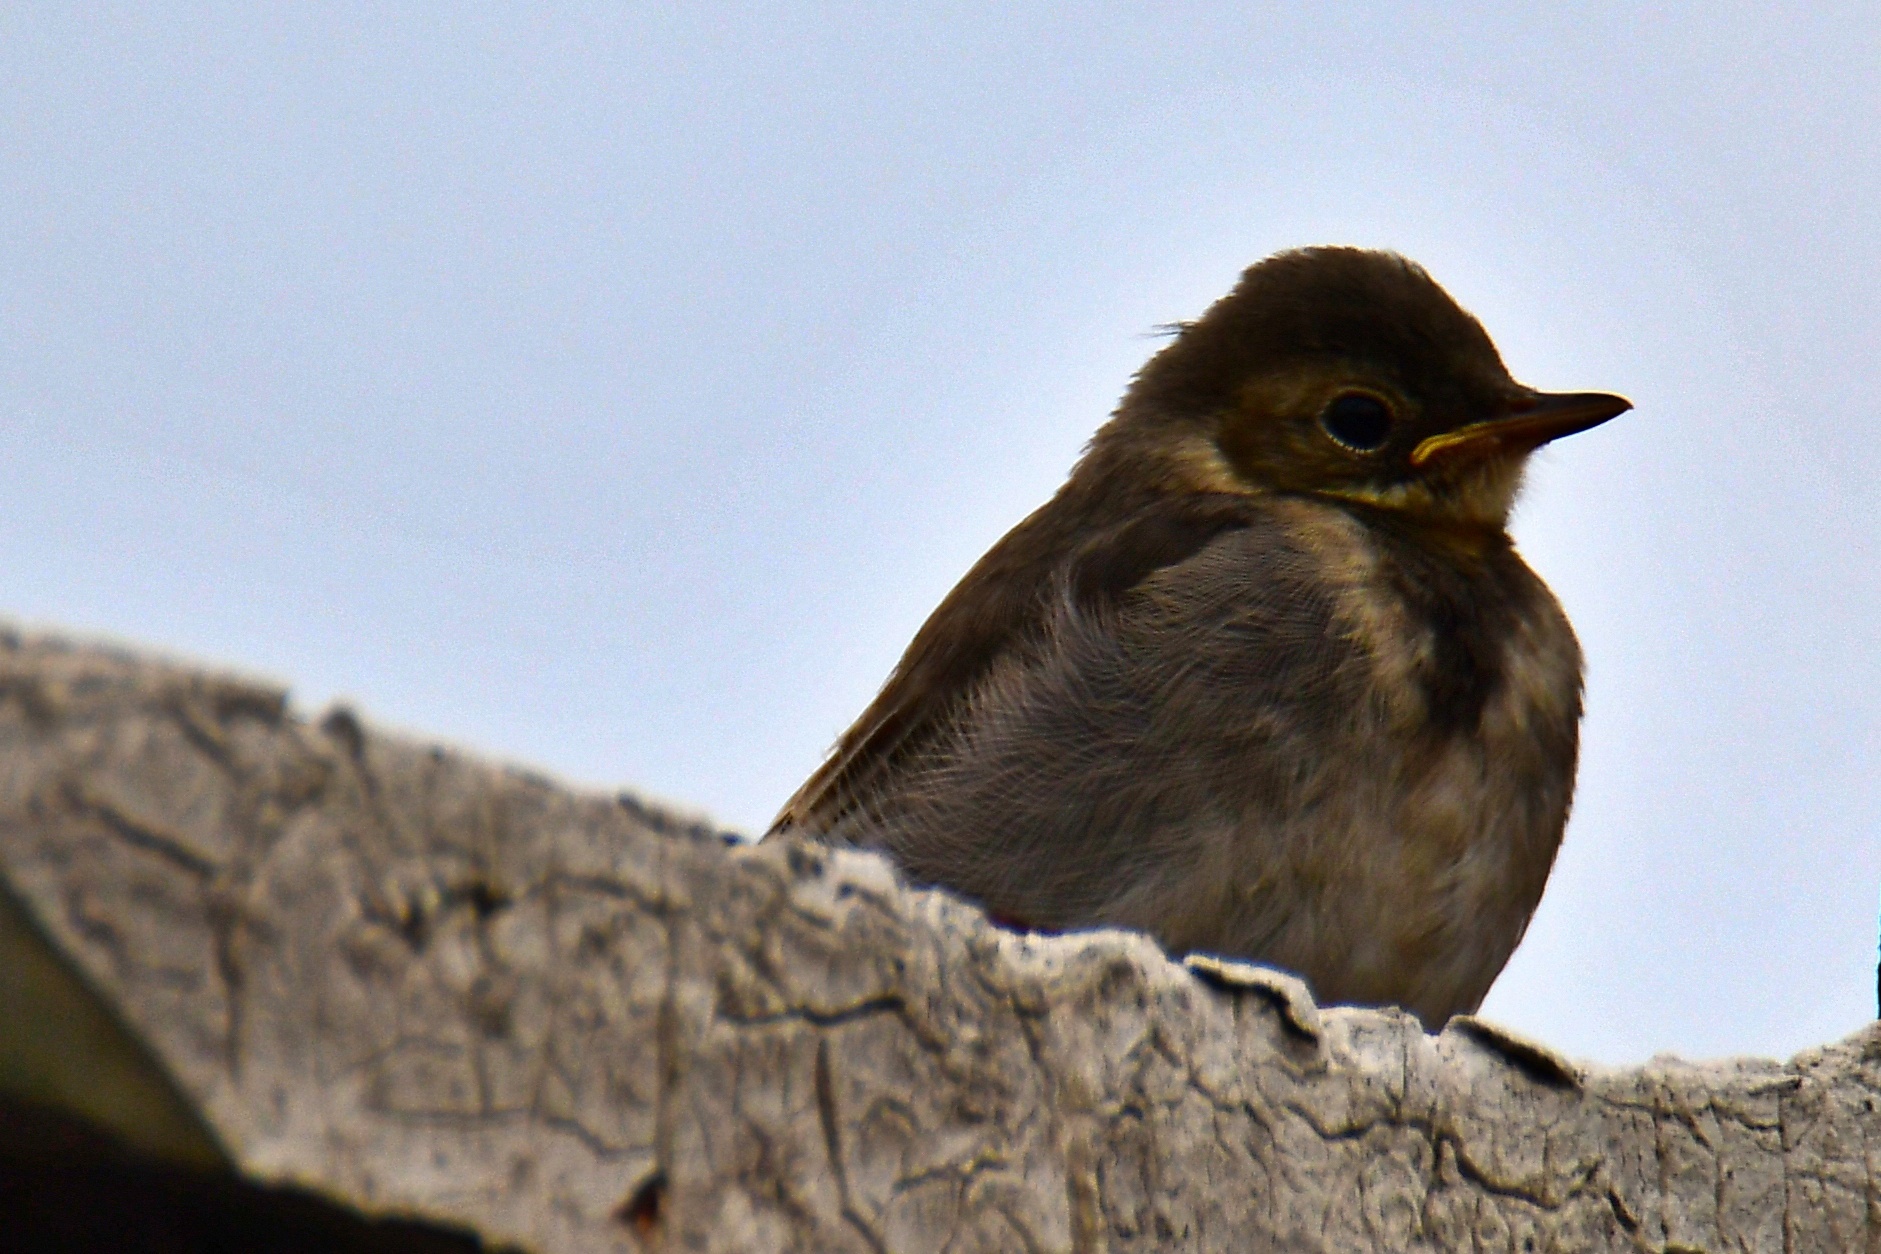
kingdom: Animalia
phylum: Chordata
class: Aves
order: Passeriformes
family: Motacillidae
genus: Motacilla
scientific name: Motacilla alba
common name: White wagtail
